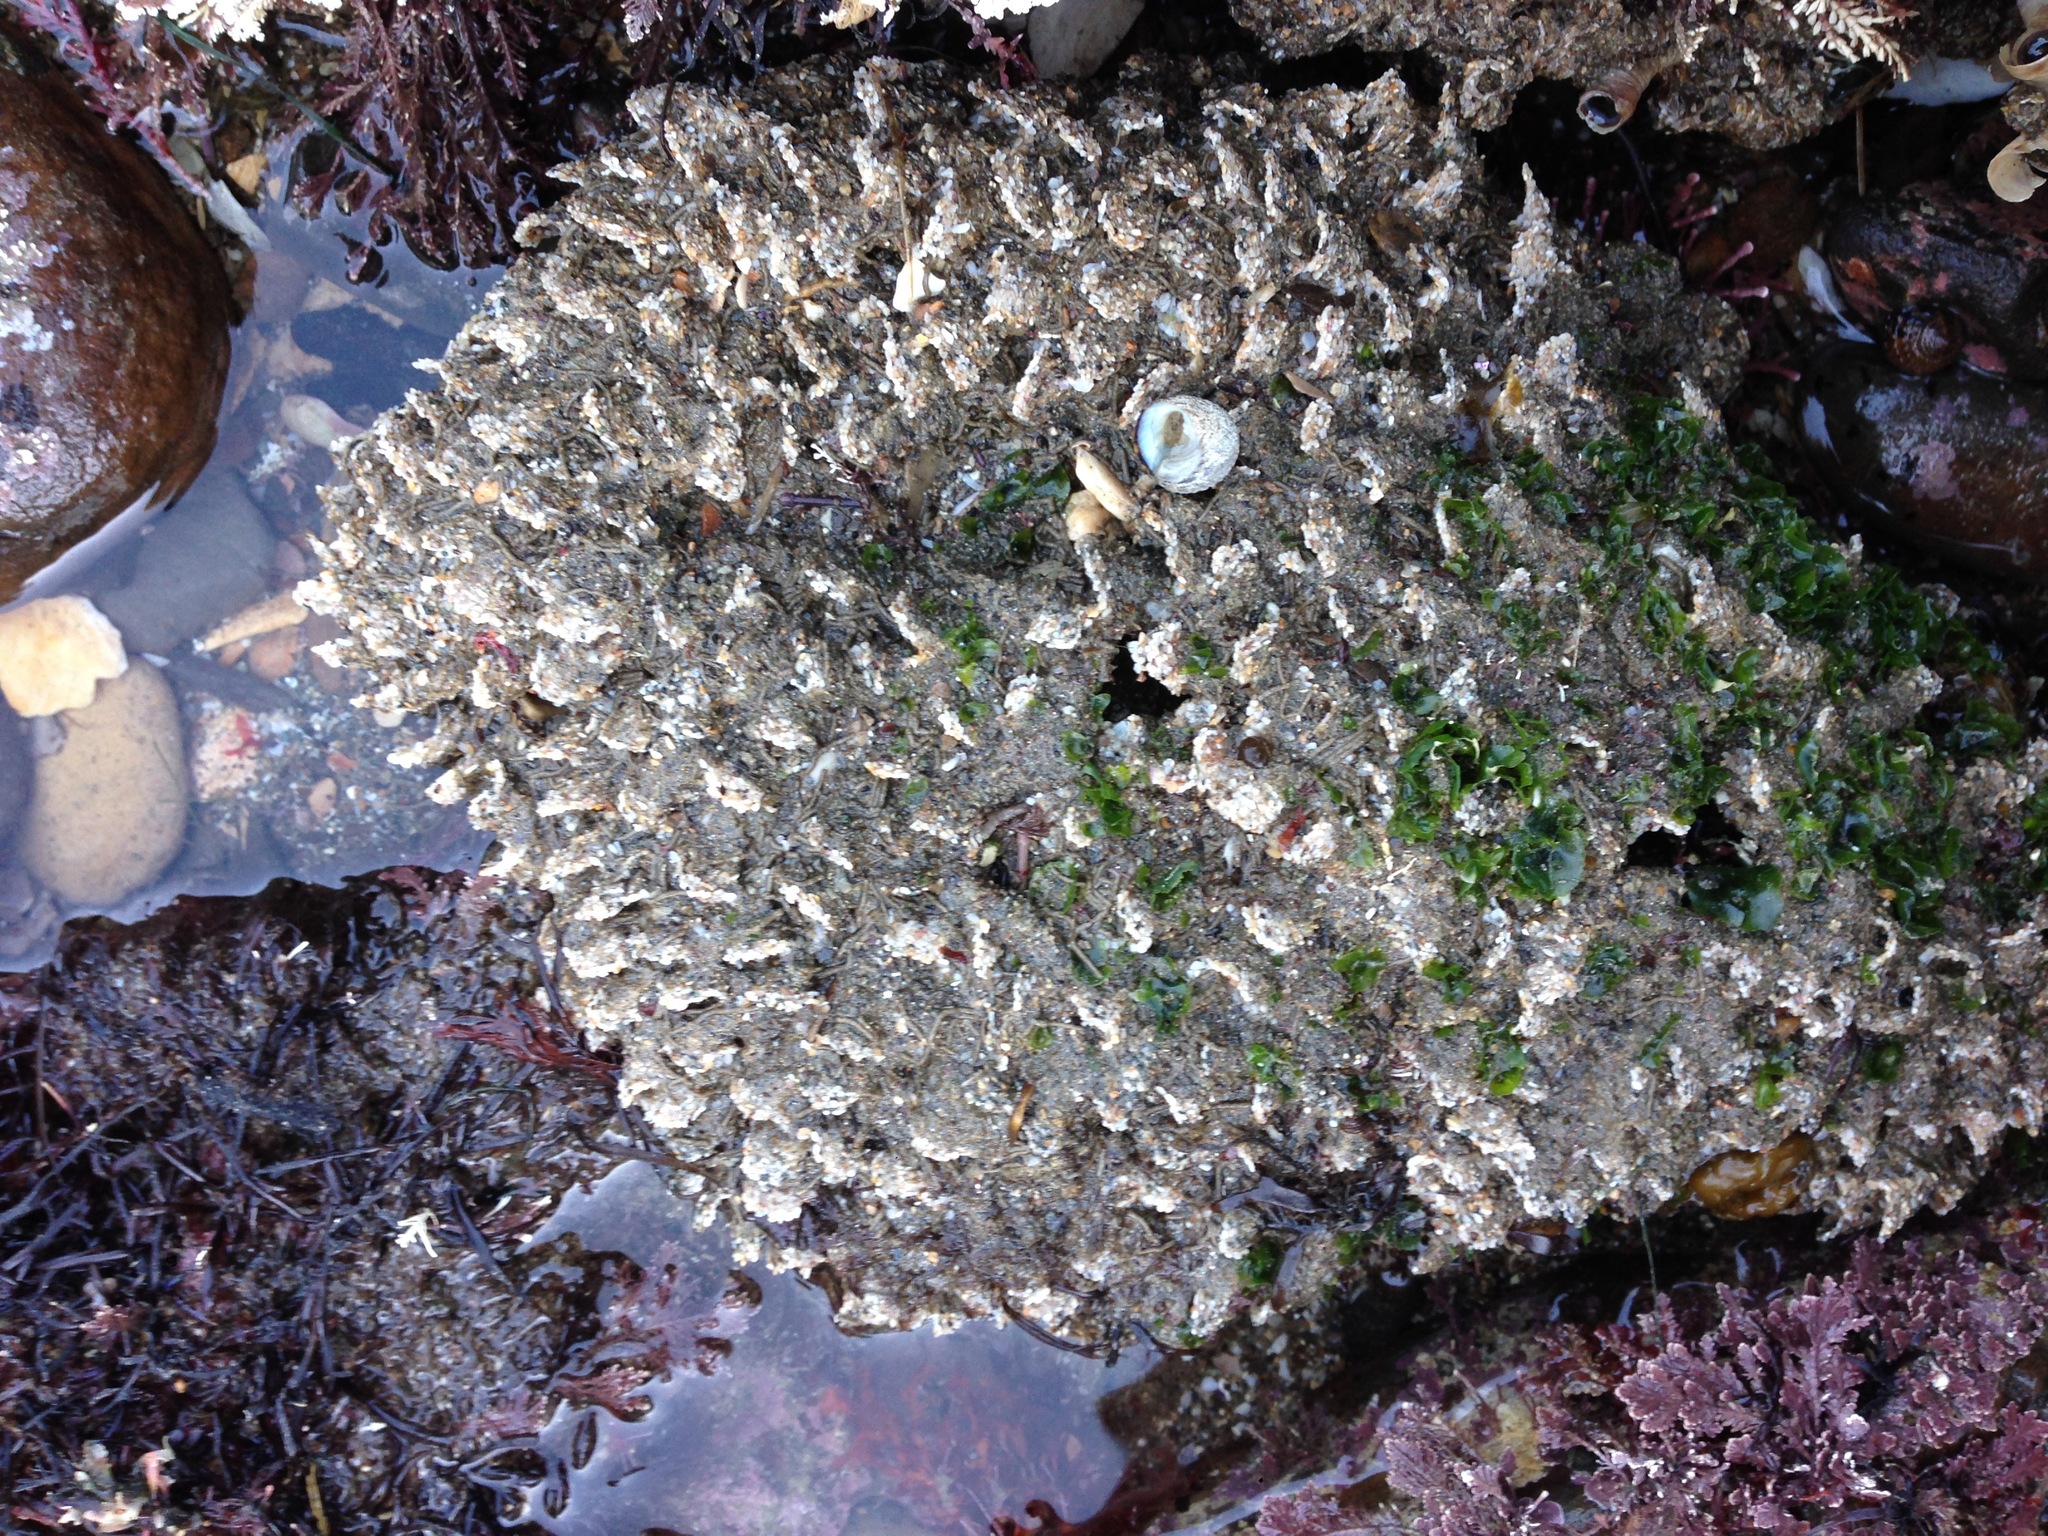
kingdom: Animalia
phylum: Annelida
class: Polychaeta
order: Sabellida
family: Sabellariidae
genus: Phragmatopoma
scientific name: Phragmatopoma californica
